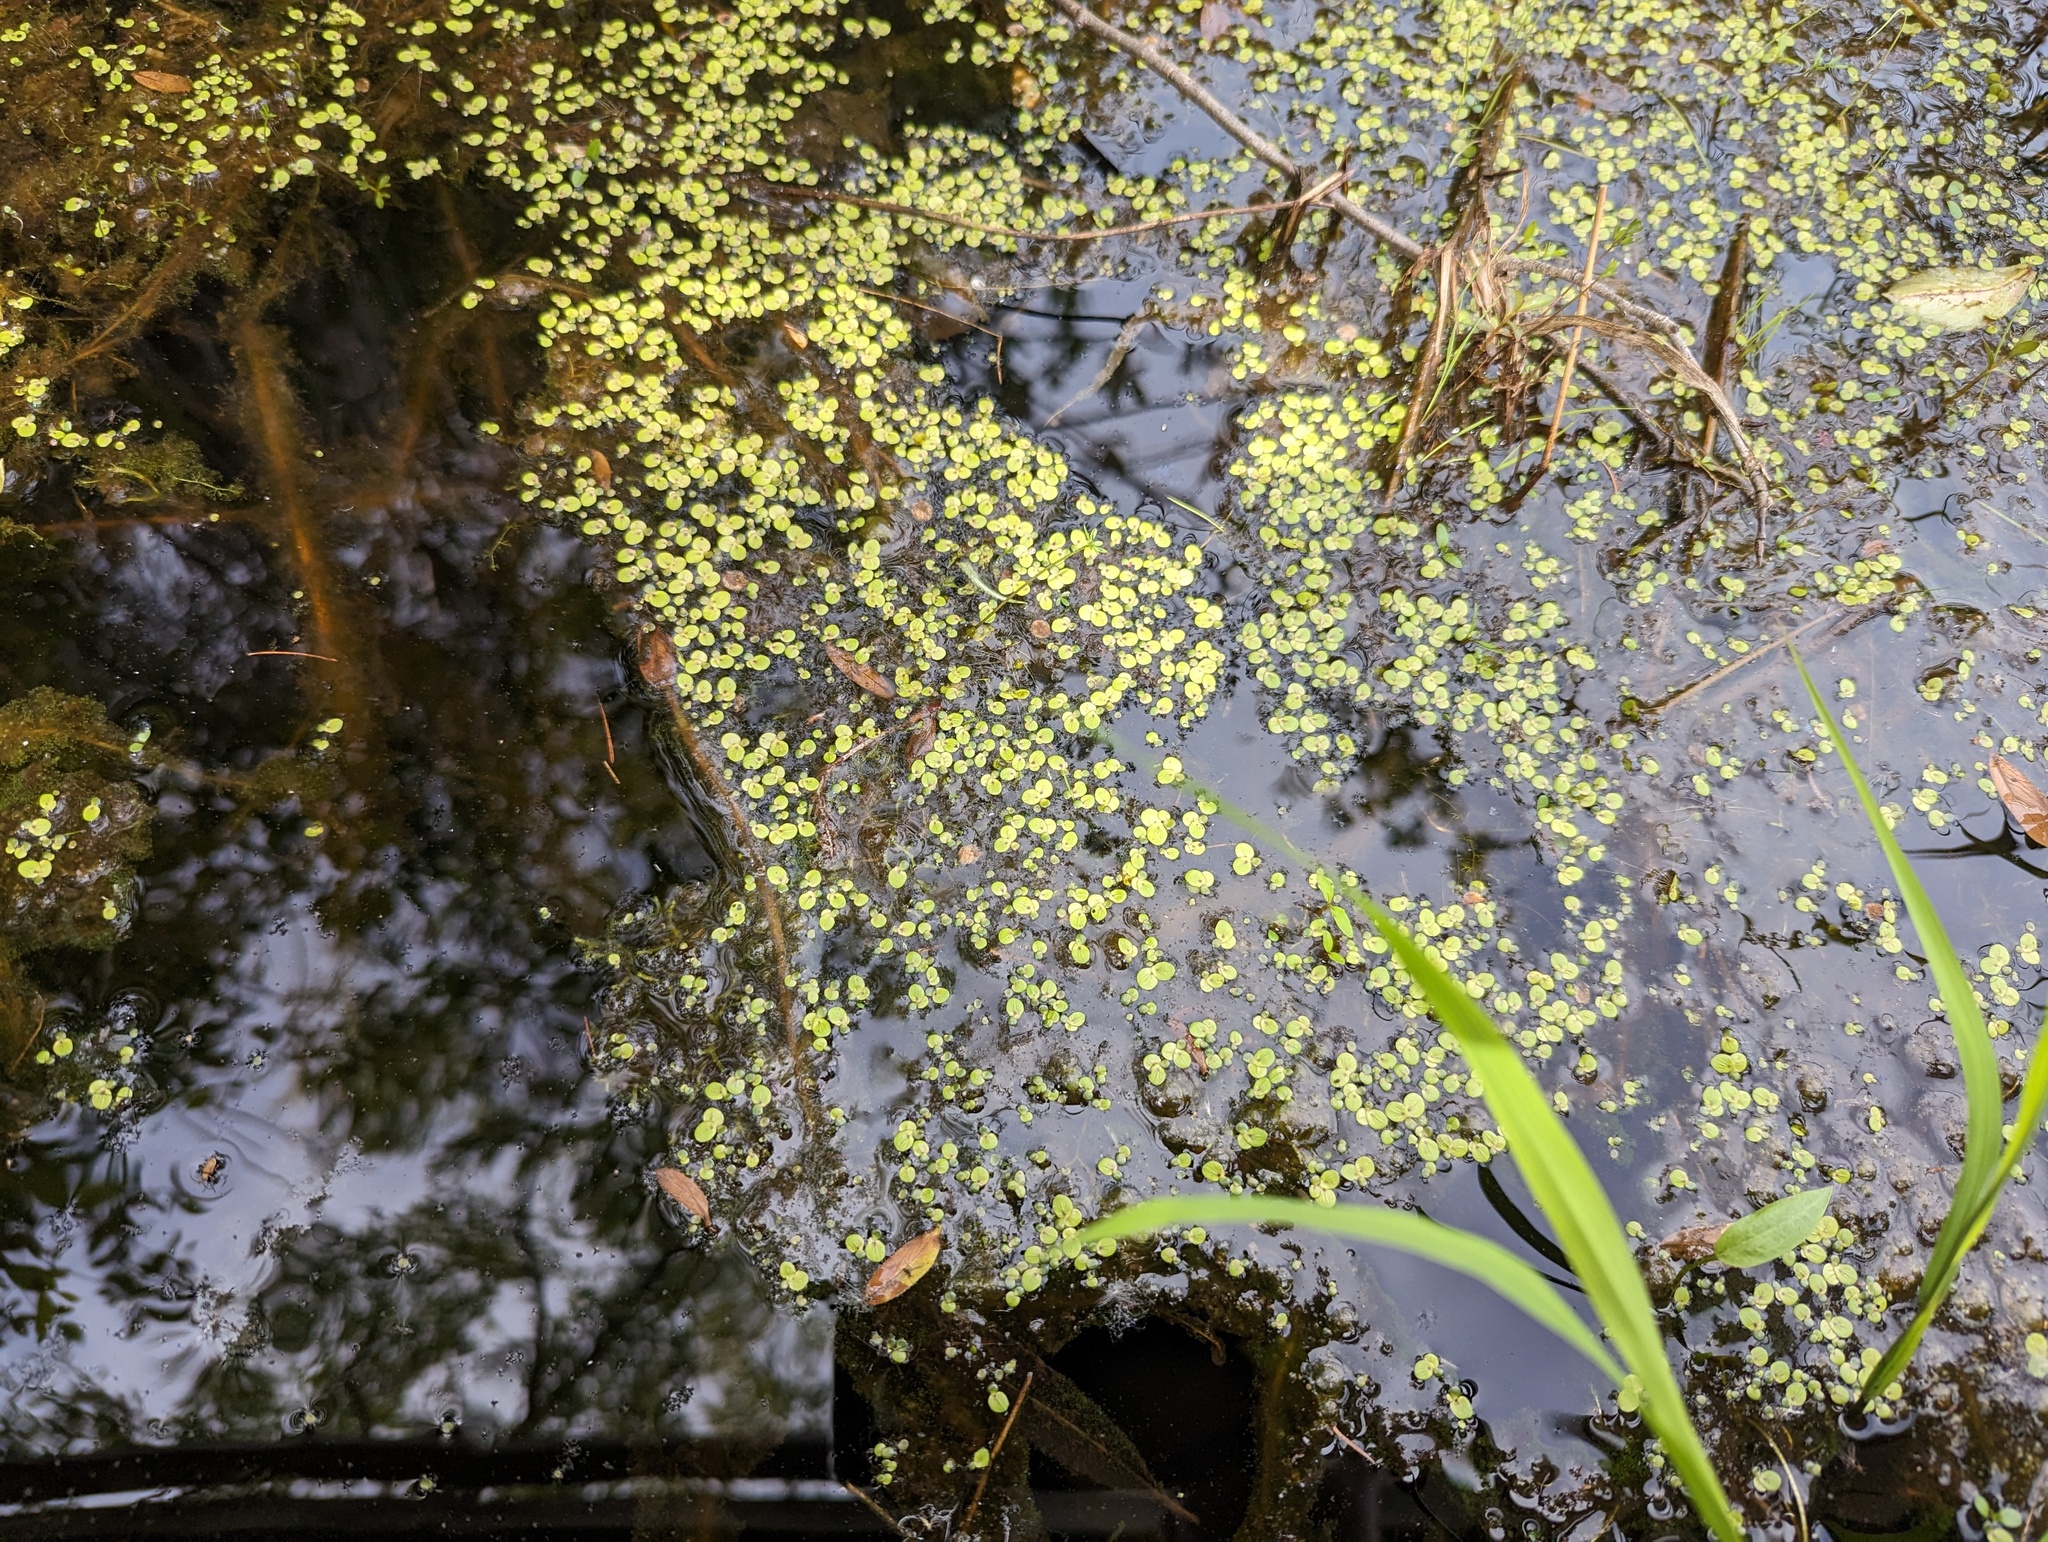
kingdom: Plantae
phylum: Tracheophyta
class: Liliopsida
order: Alismatales
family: Araceae
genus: Spirodela
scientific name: Spirodela polyrhiza
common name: Great duckweed
